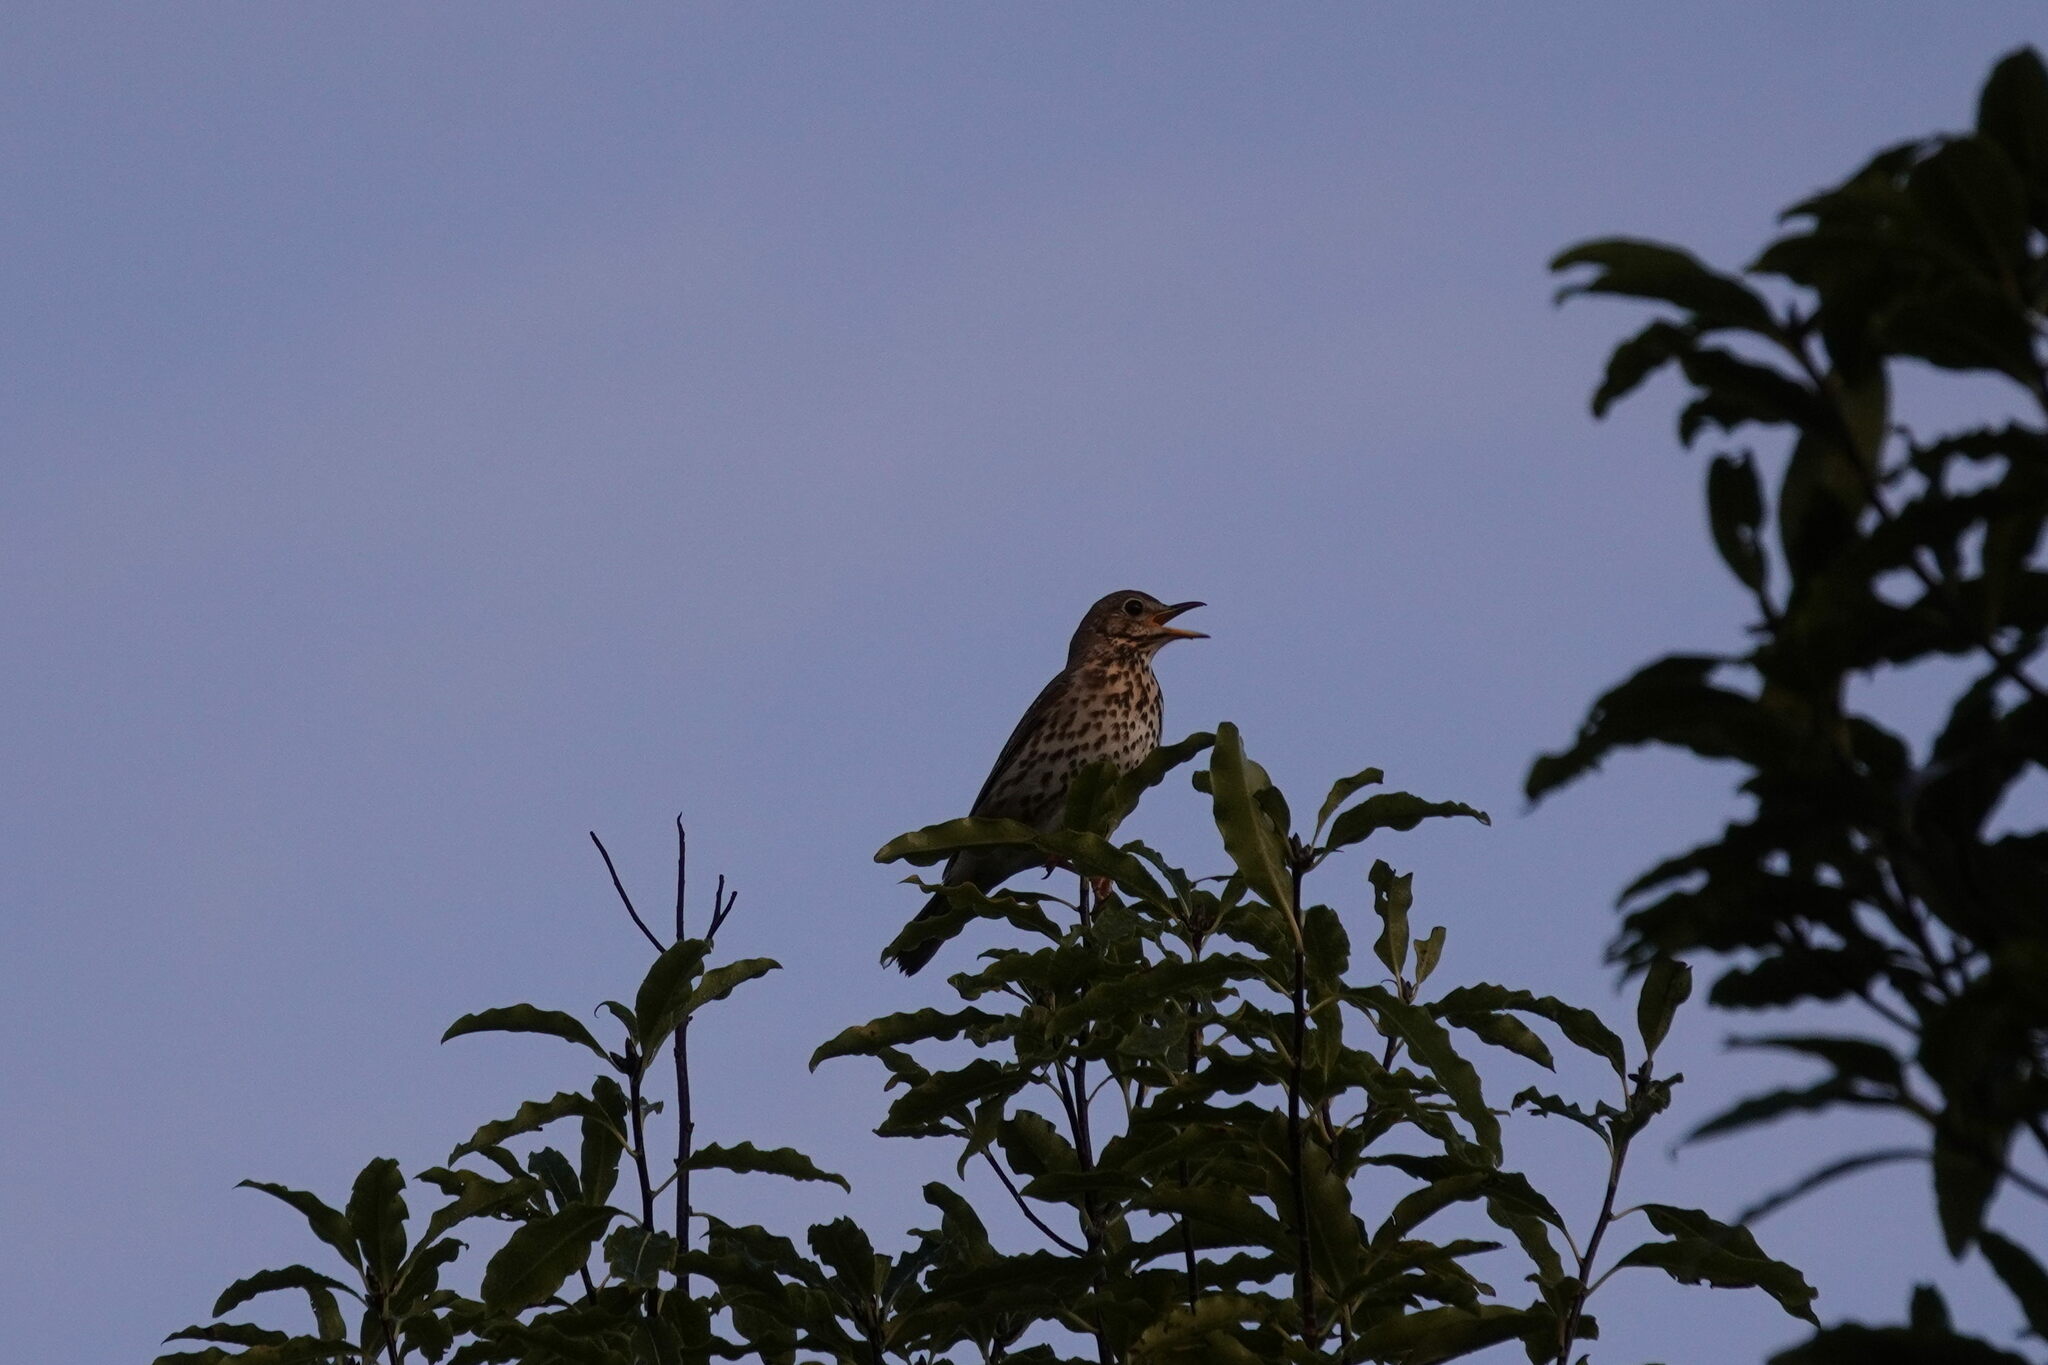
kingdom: Animalia
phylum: Chordata
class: Aves
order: Passeriformes
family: Turdidae
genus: Turdus
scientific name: Turdus philomelos
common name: Song thrush
